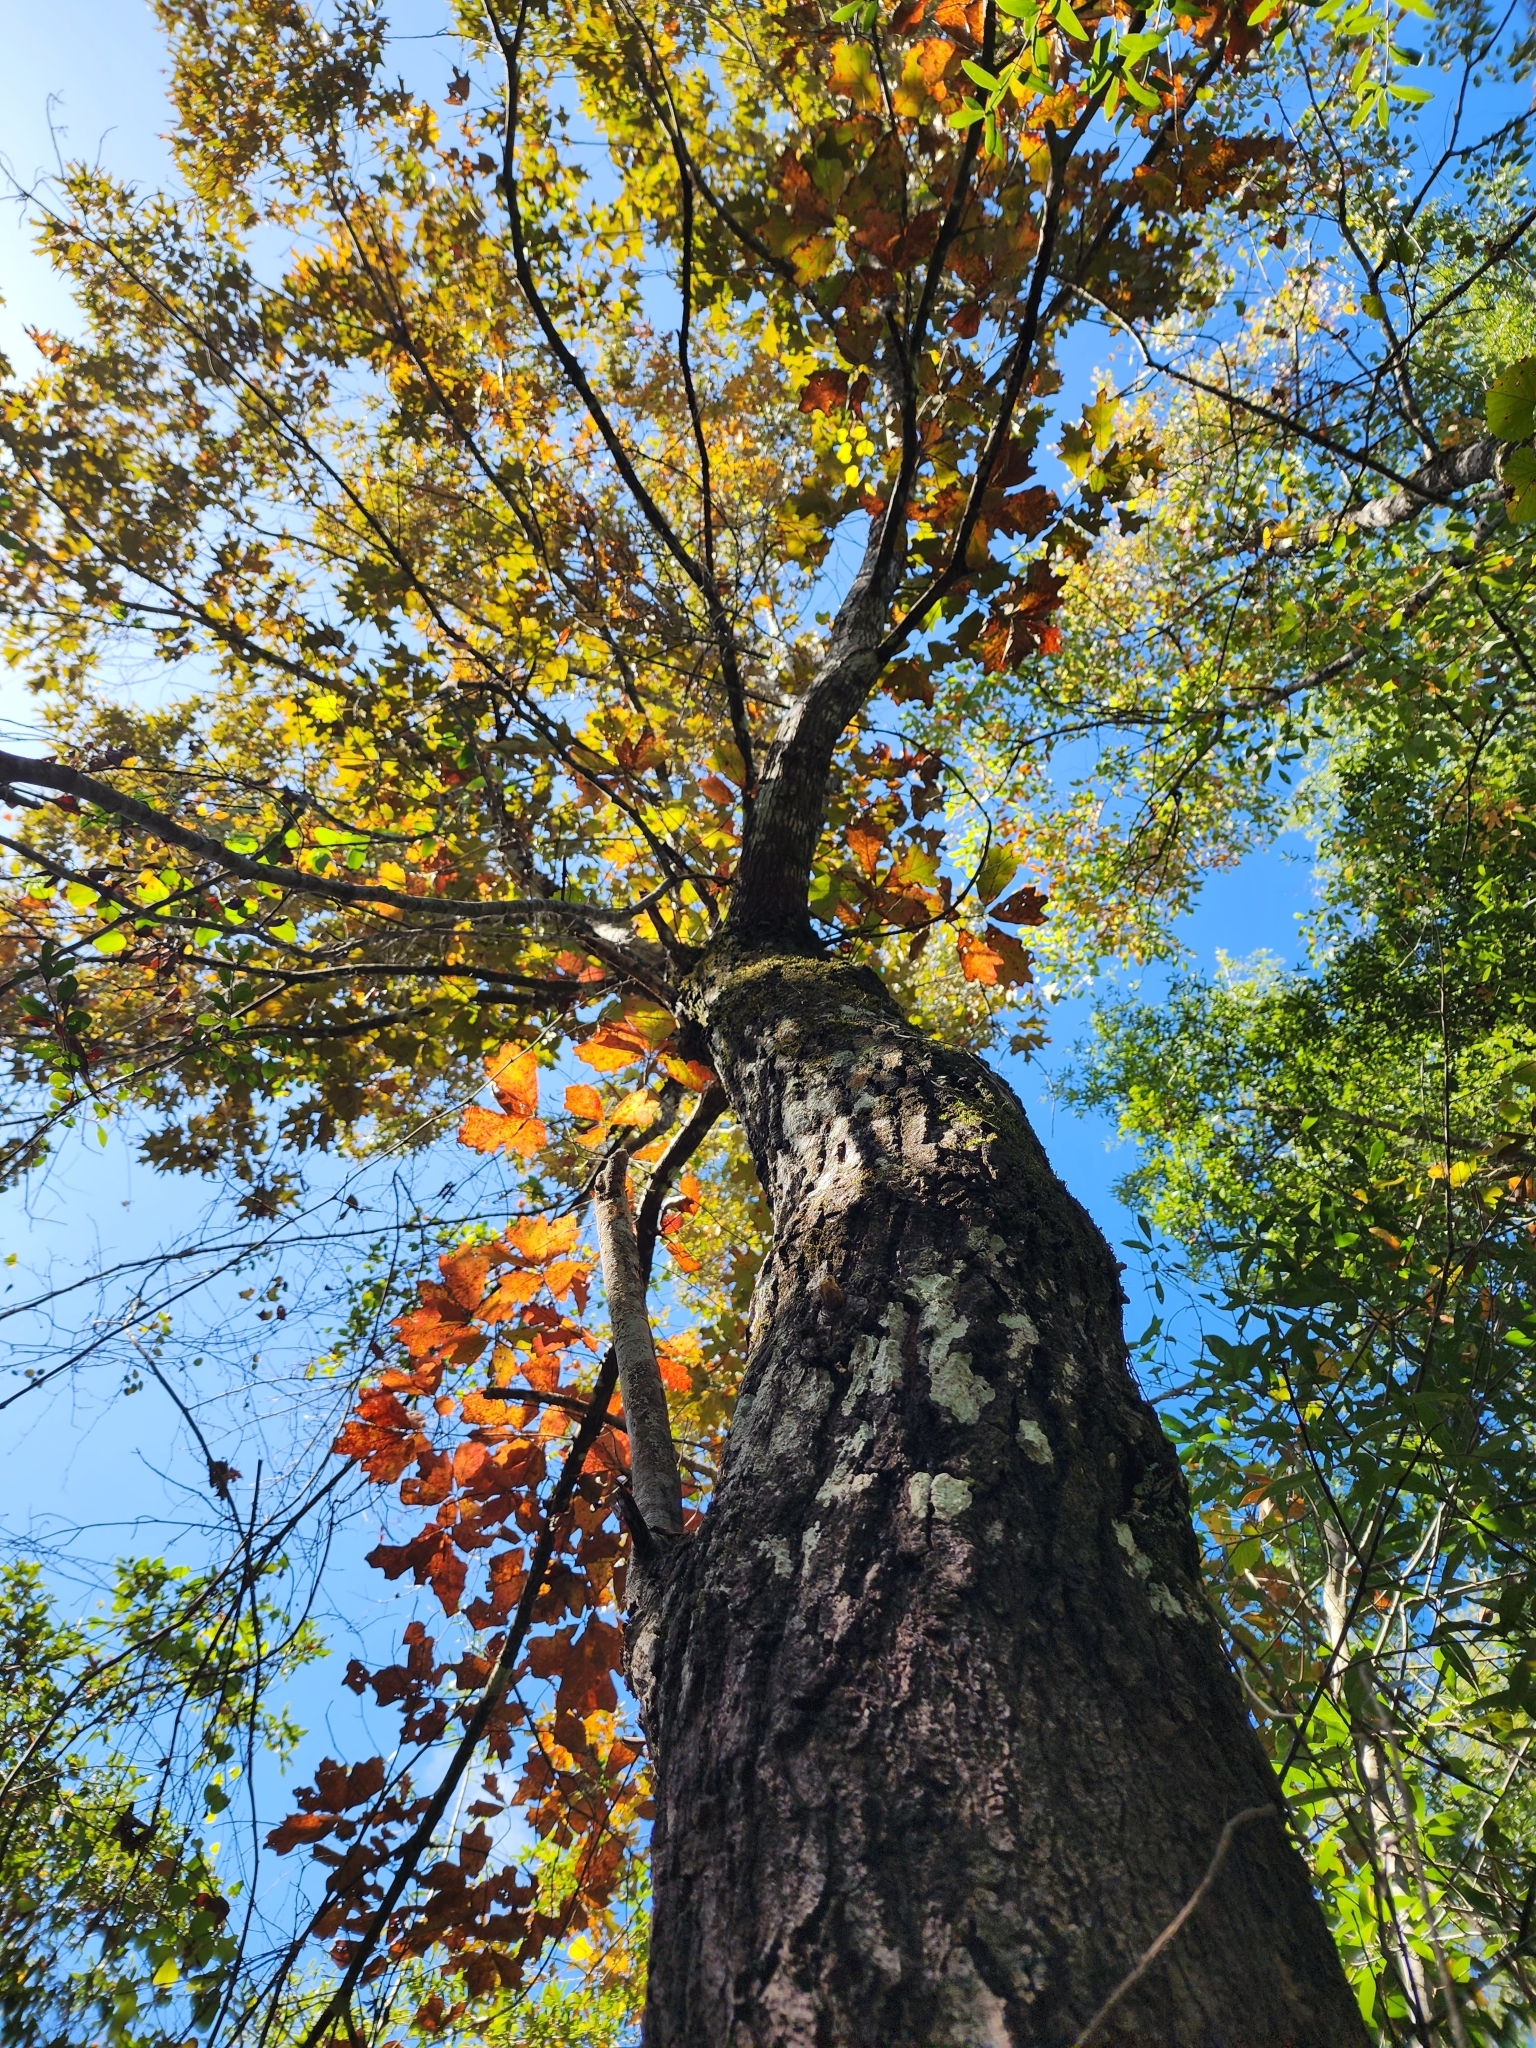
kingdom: Plantae
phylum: Tracheophyta
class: Magnoliopsida
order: Fagales
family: Fagaceae
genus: Quercus
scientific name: Quercus falcata
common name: Southern red oak
